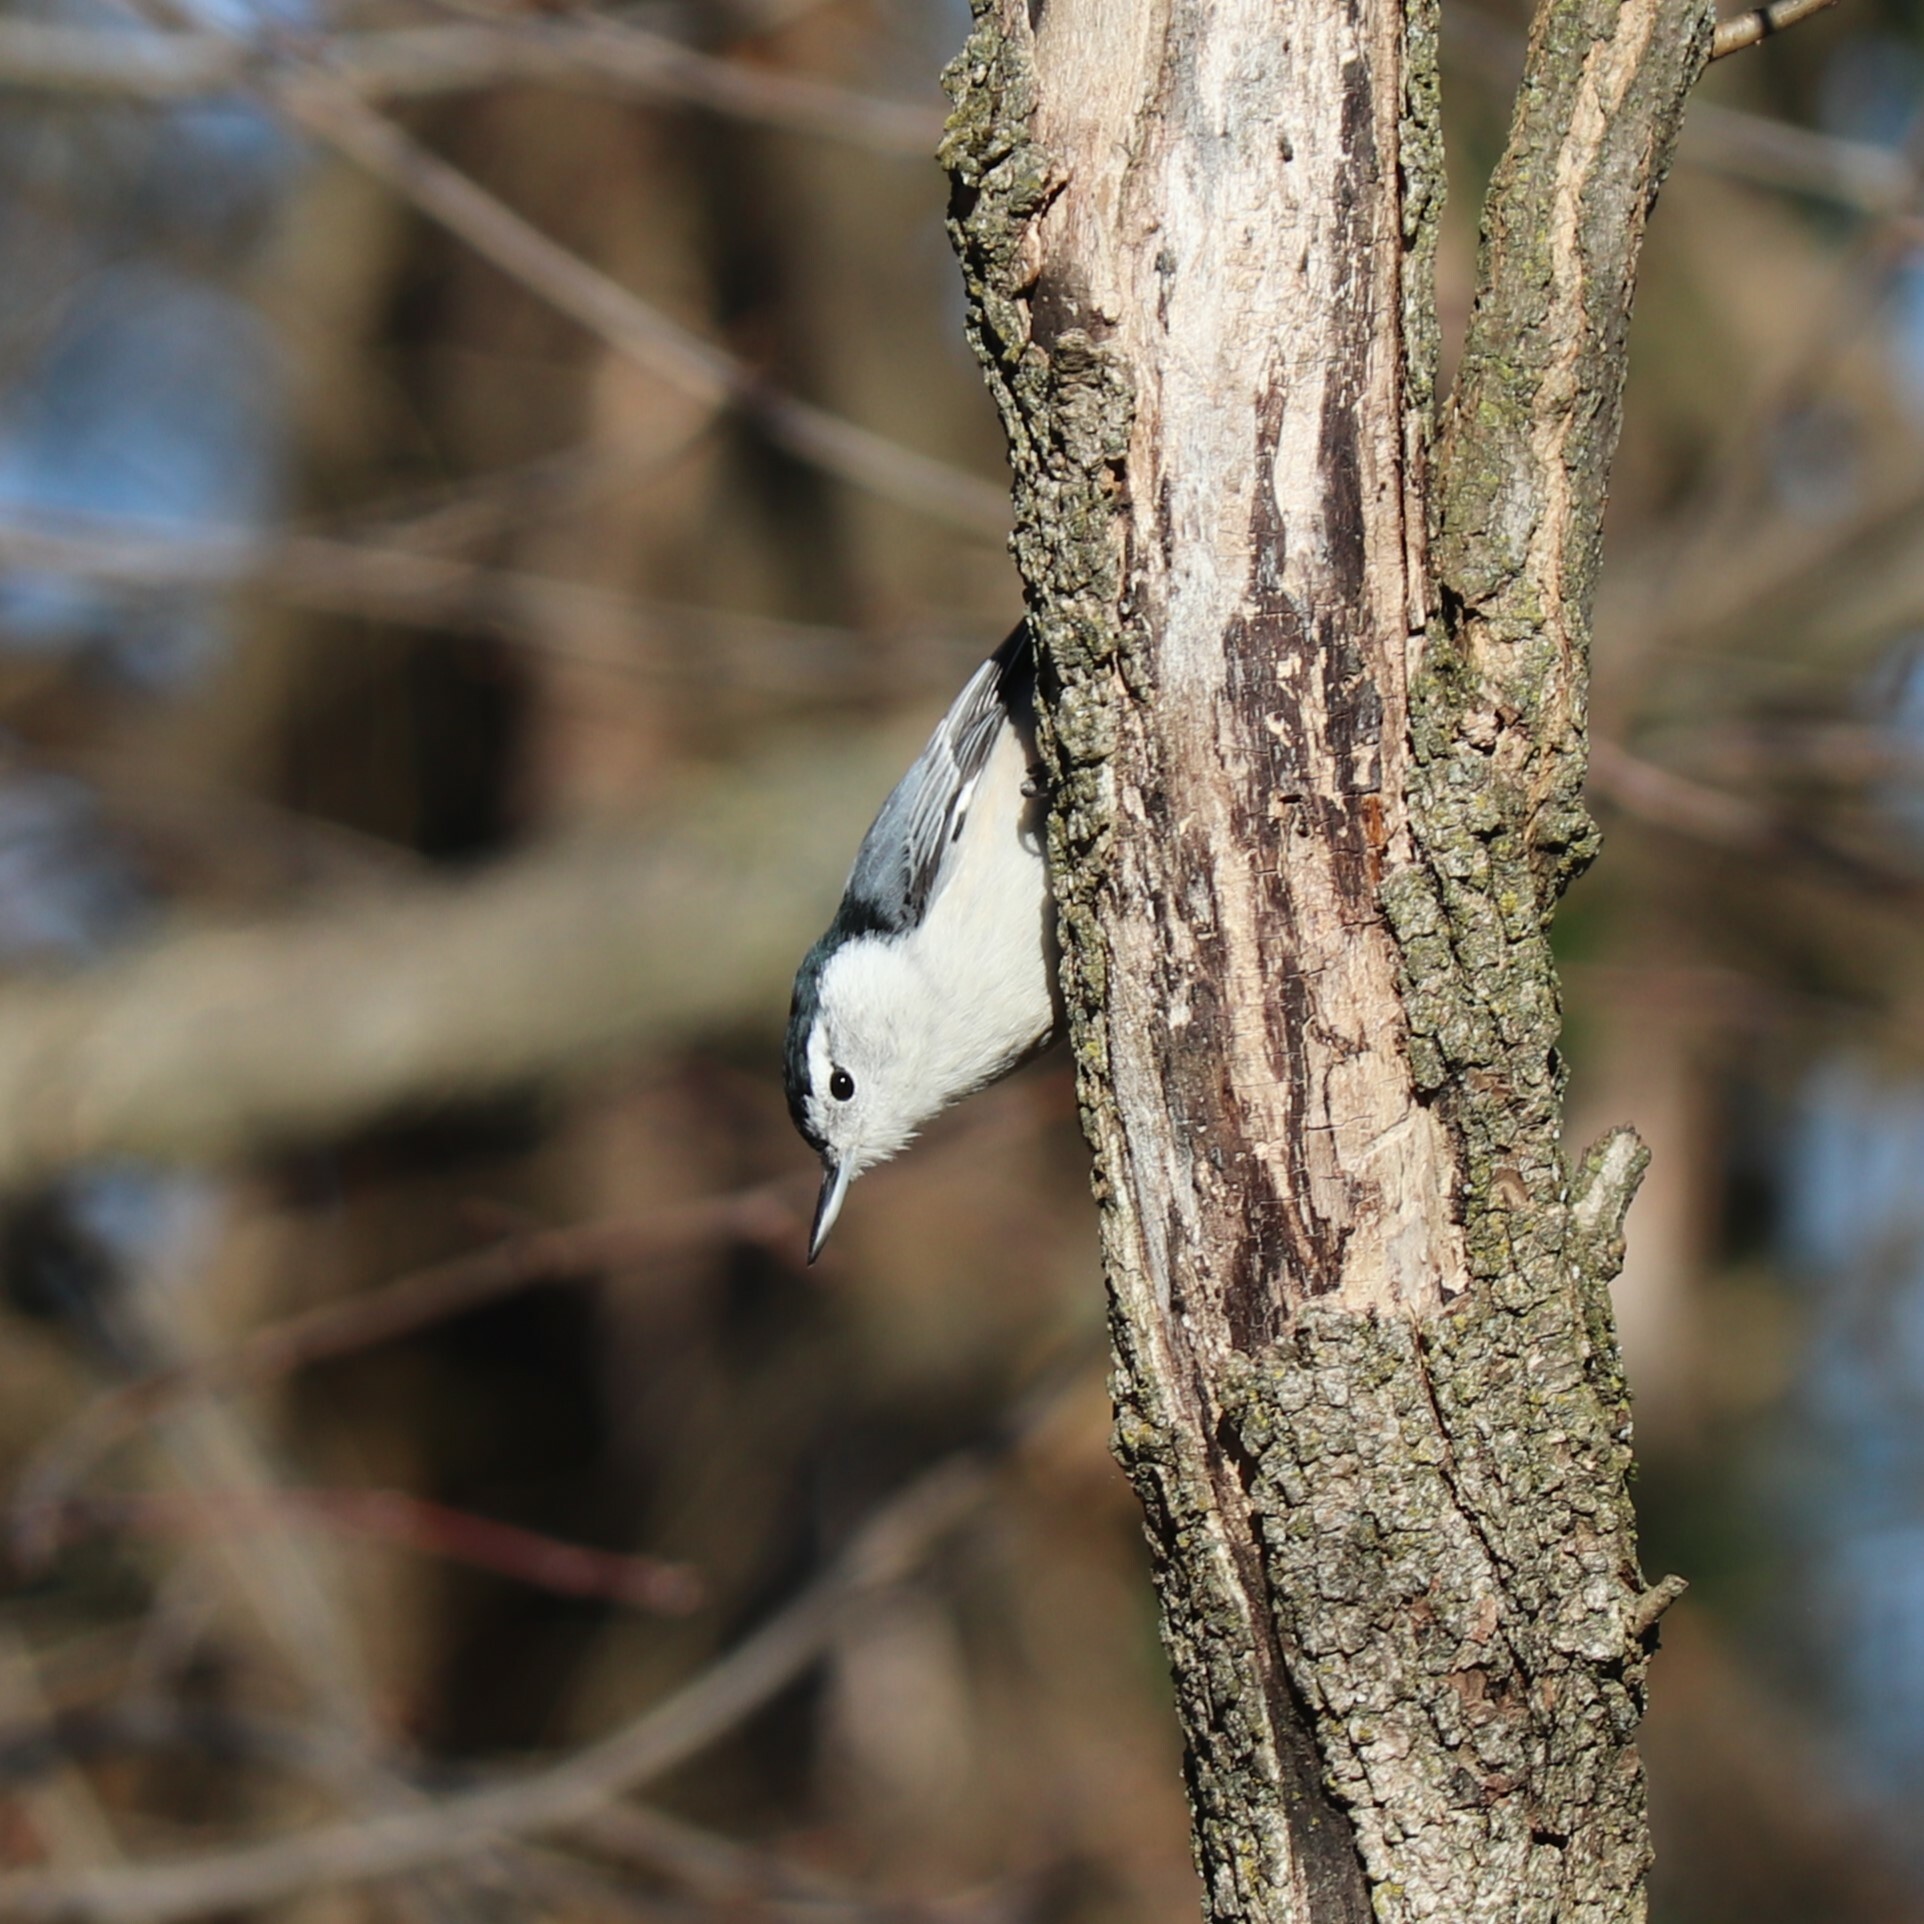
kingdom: Animalia
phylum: Chordata
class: Aves
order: Passeriformes
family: Sittidae
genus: Sitta
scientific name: Sitta carolinensis
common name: White-breasted nuthatch
